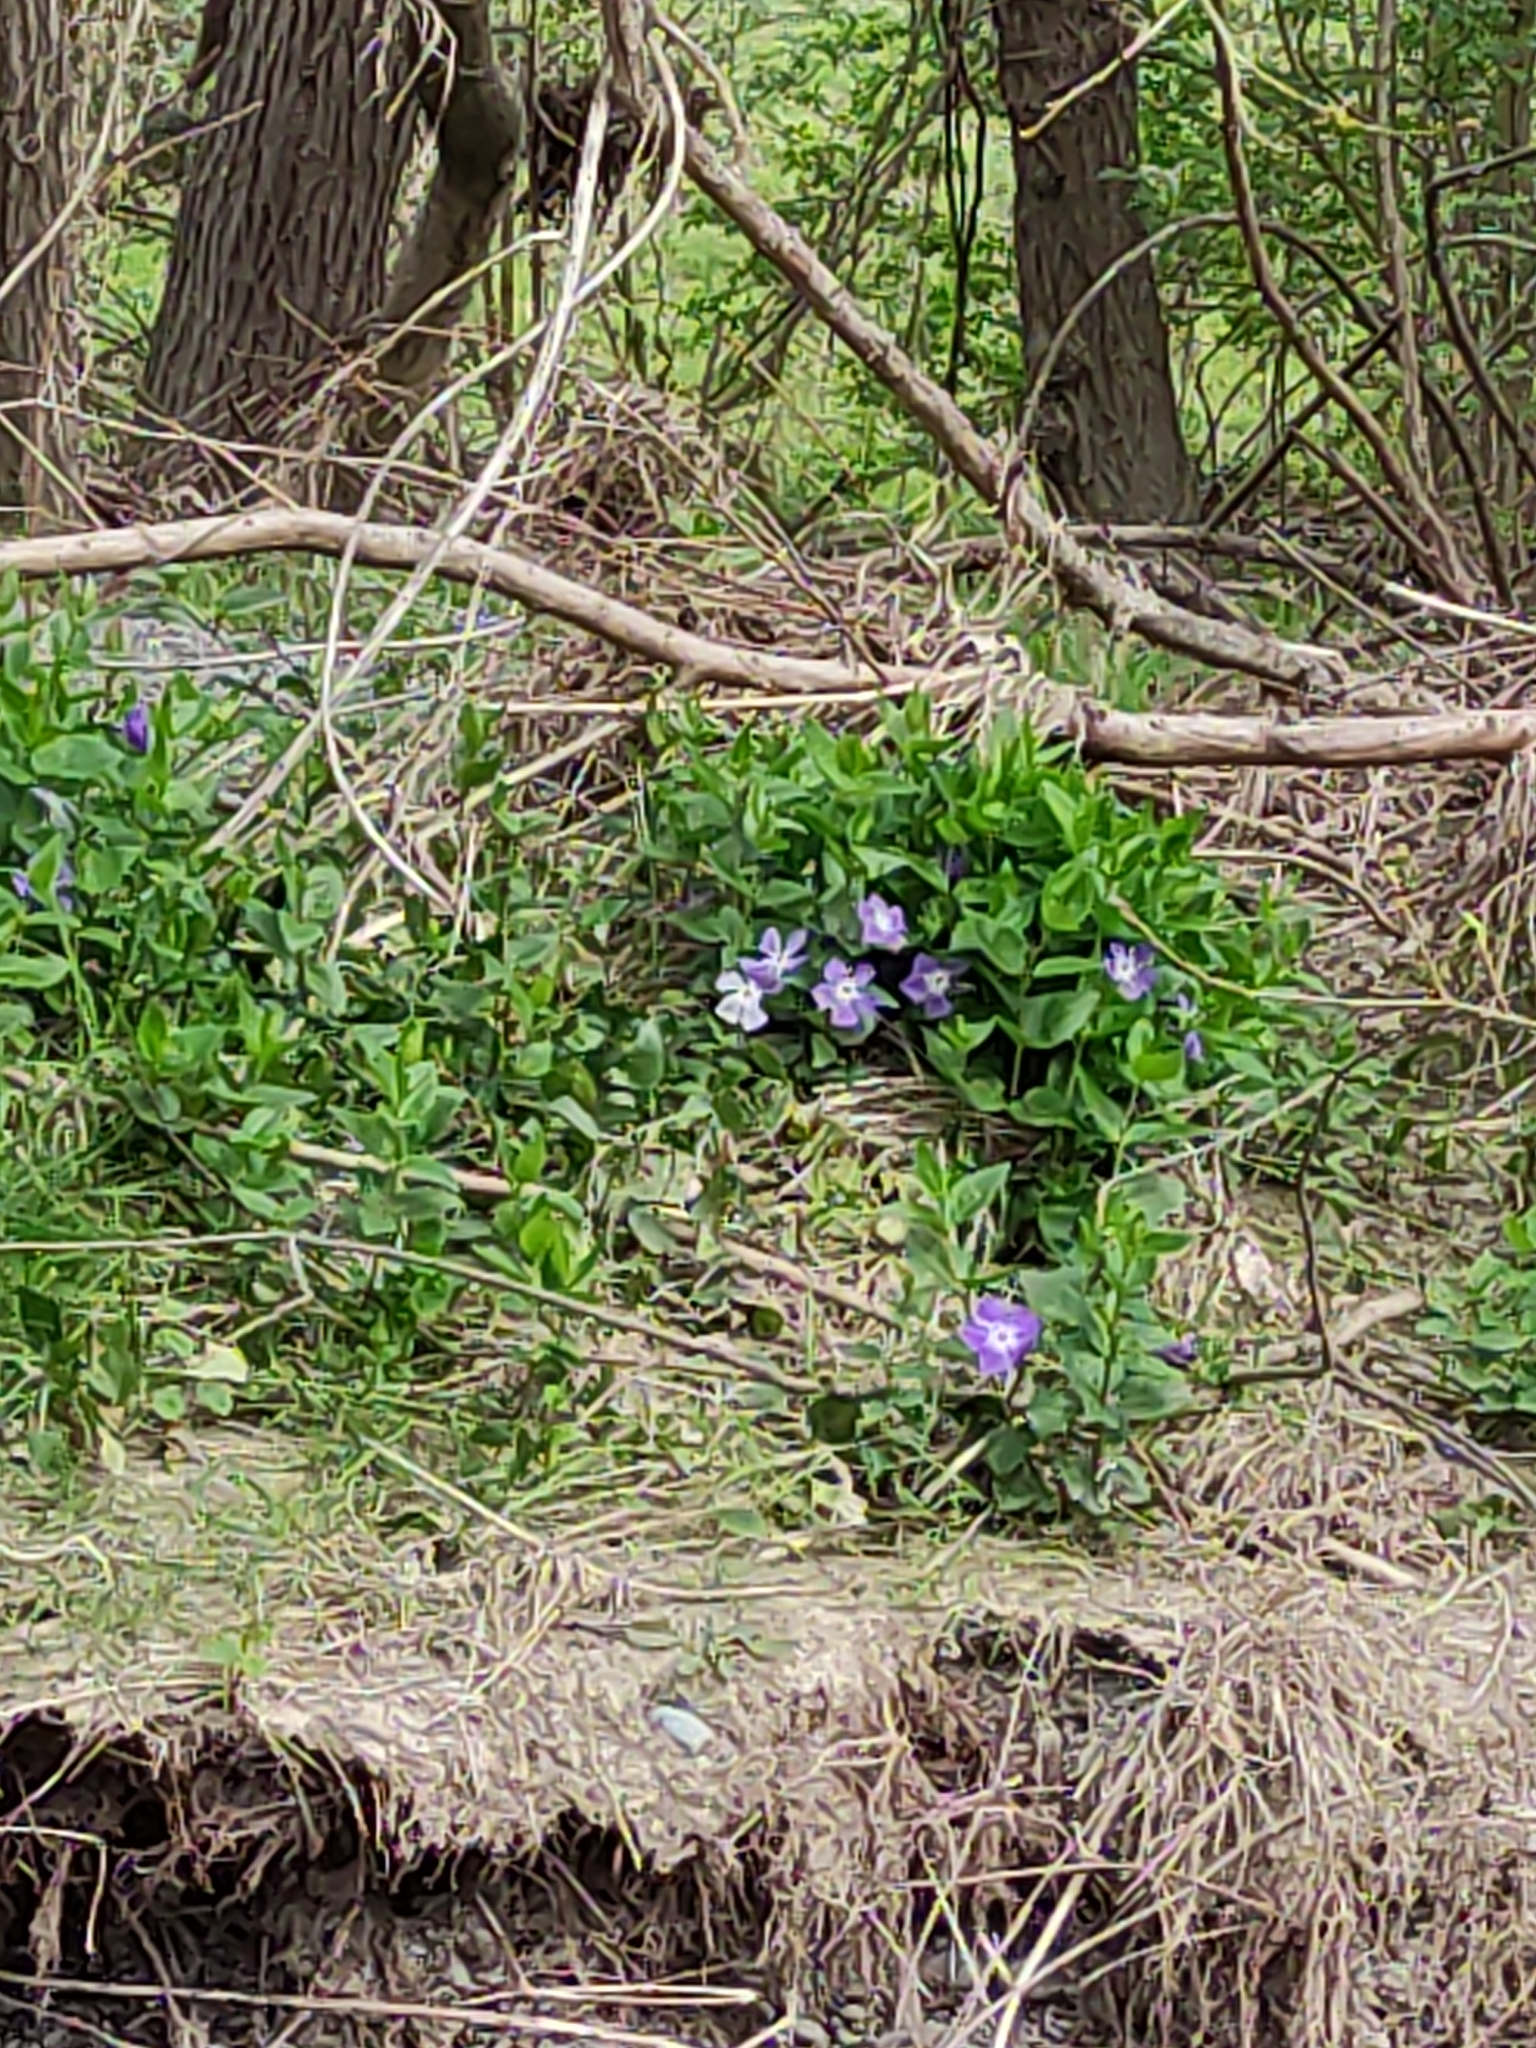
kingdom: Plantae
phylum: Tracheophyta
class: Magnoliopsida
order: Gentianales
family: Apocynaceae
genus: Vinca
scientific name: Vinca major
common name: Greater periwinkle
